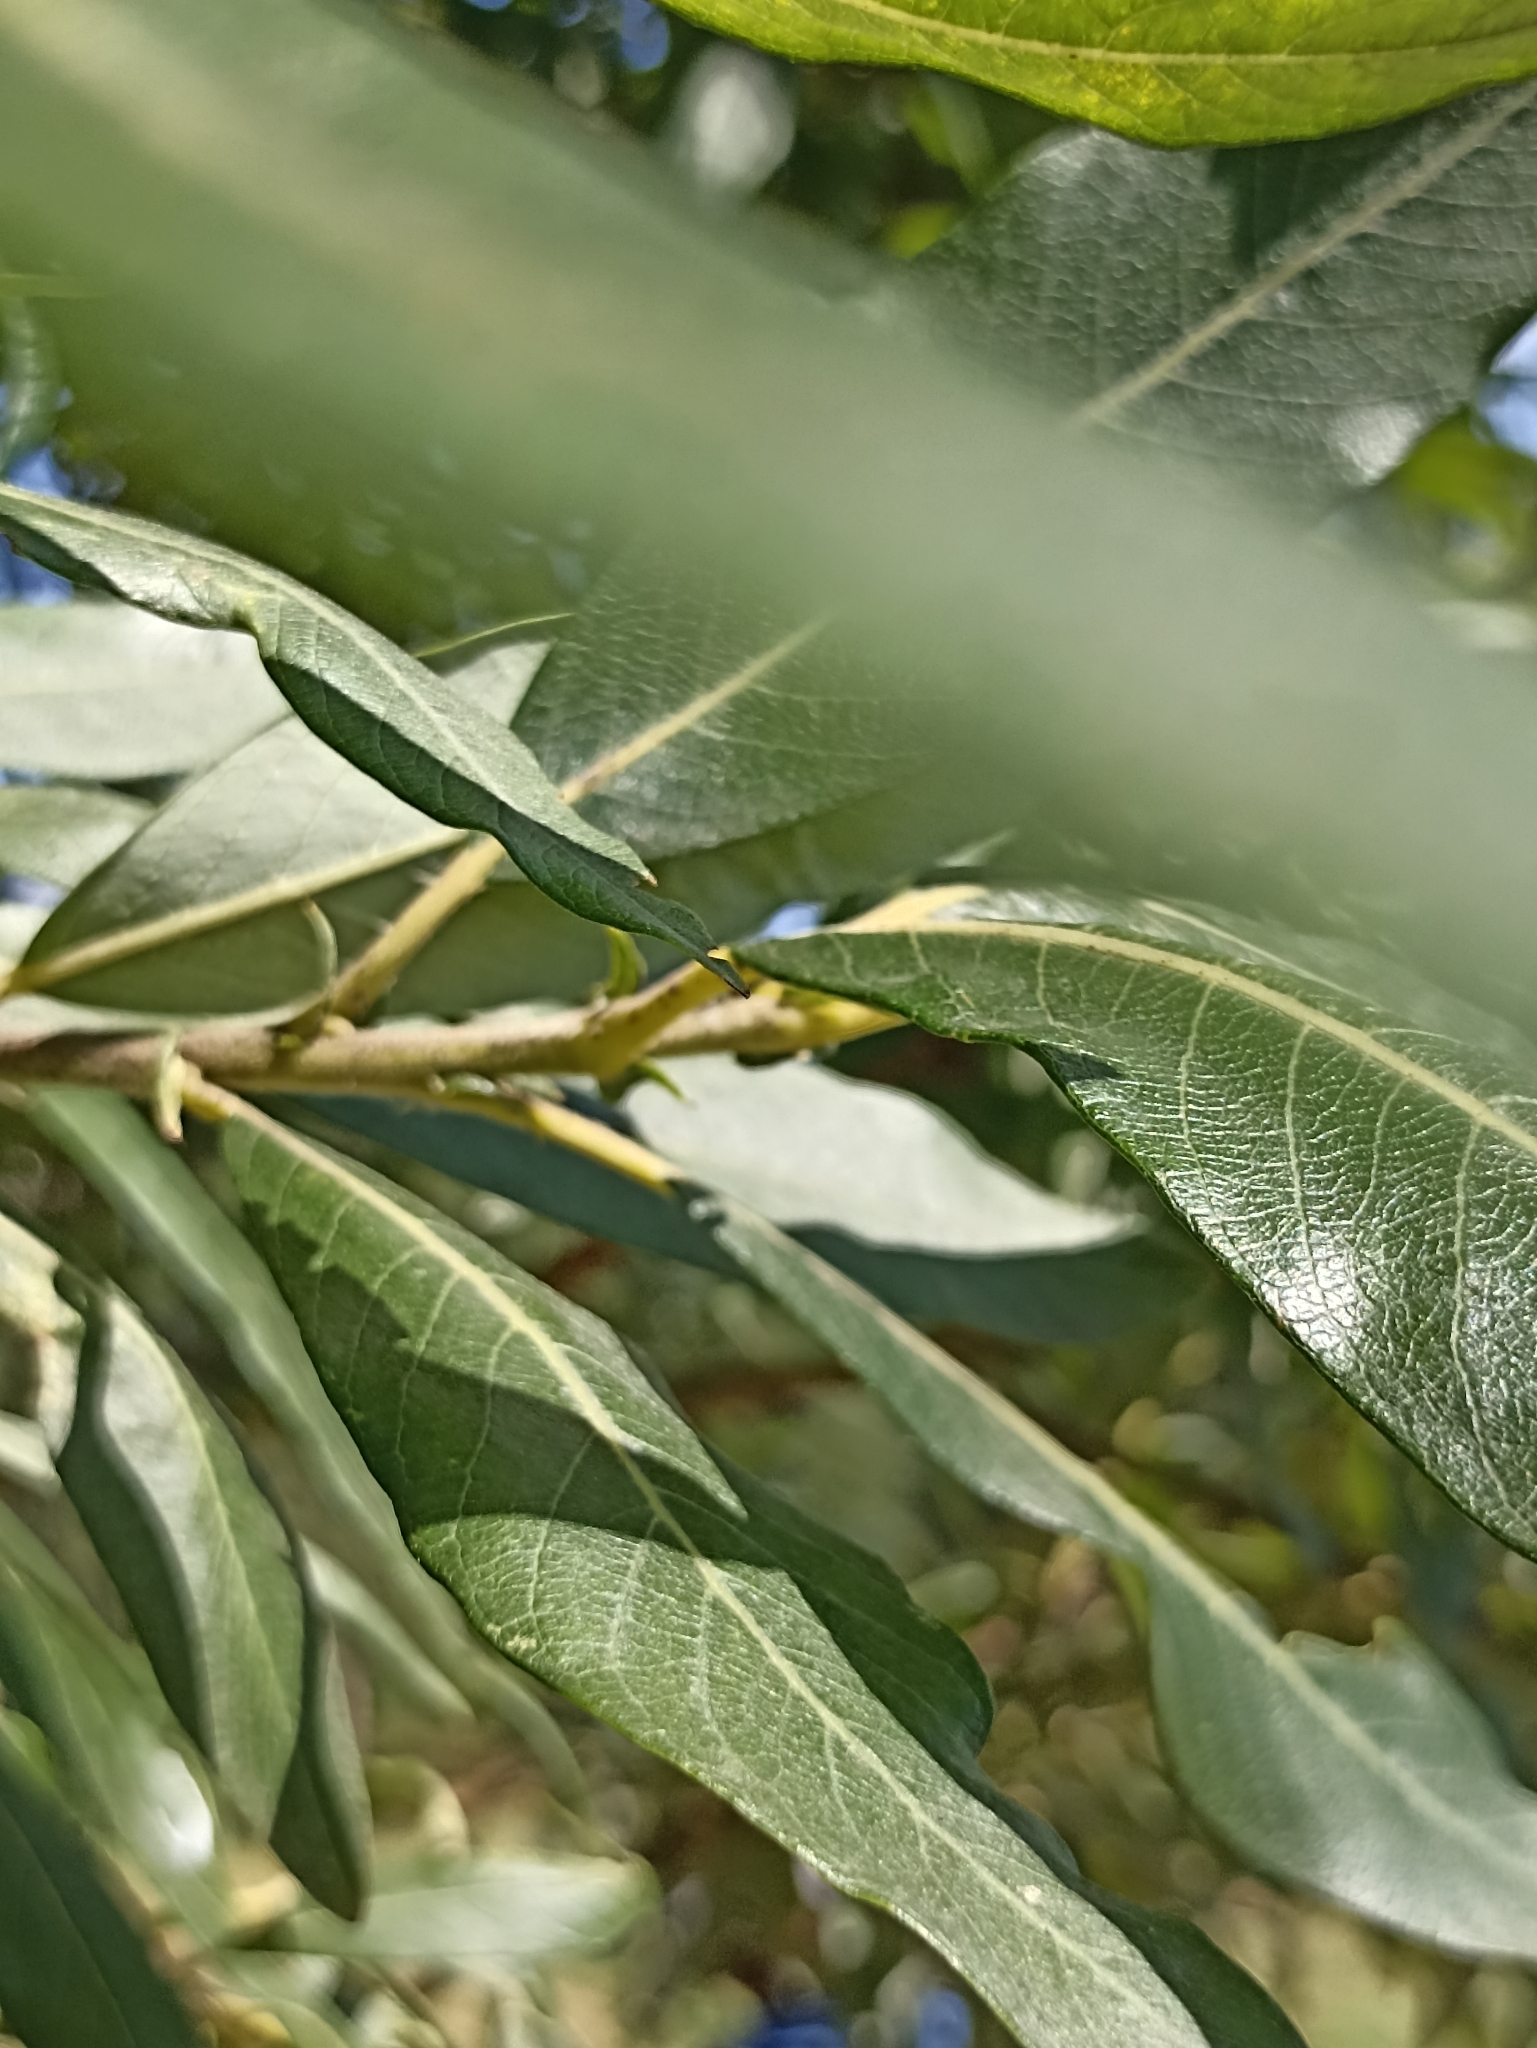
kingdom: Plantae
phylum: Tracheophyta
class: Magnoliopsida
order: Malpighiales
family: Salicaceae
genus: Salix
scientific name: Salix gmelinii
